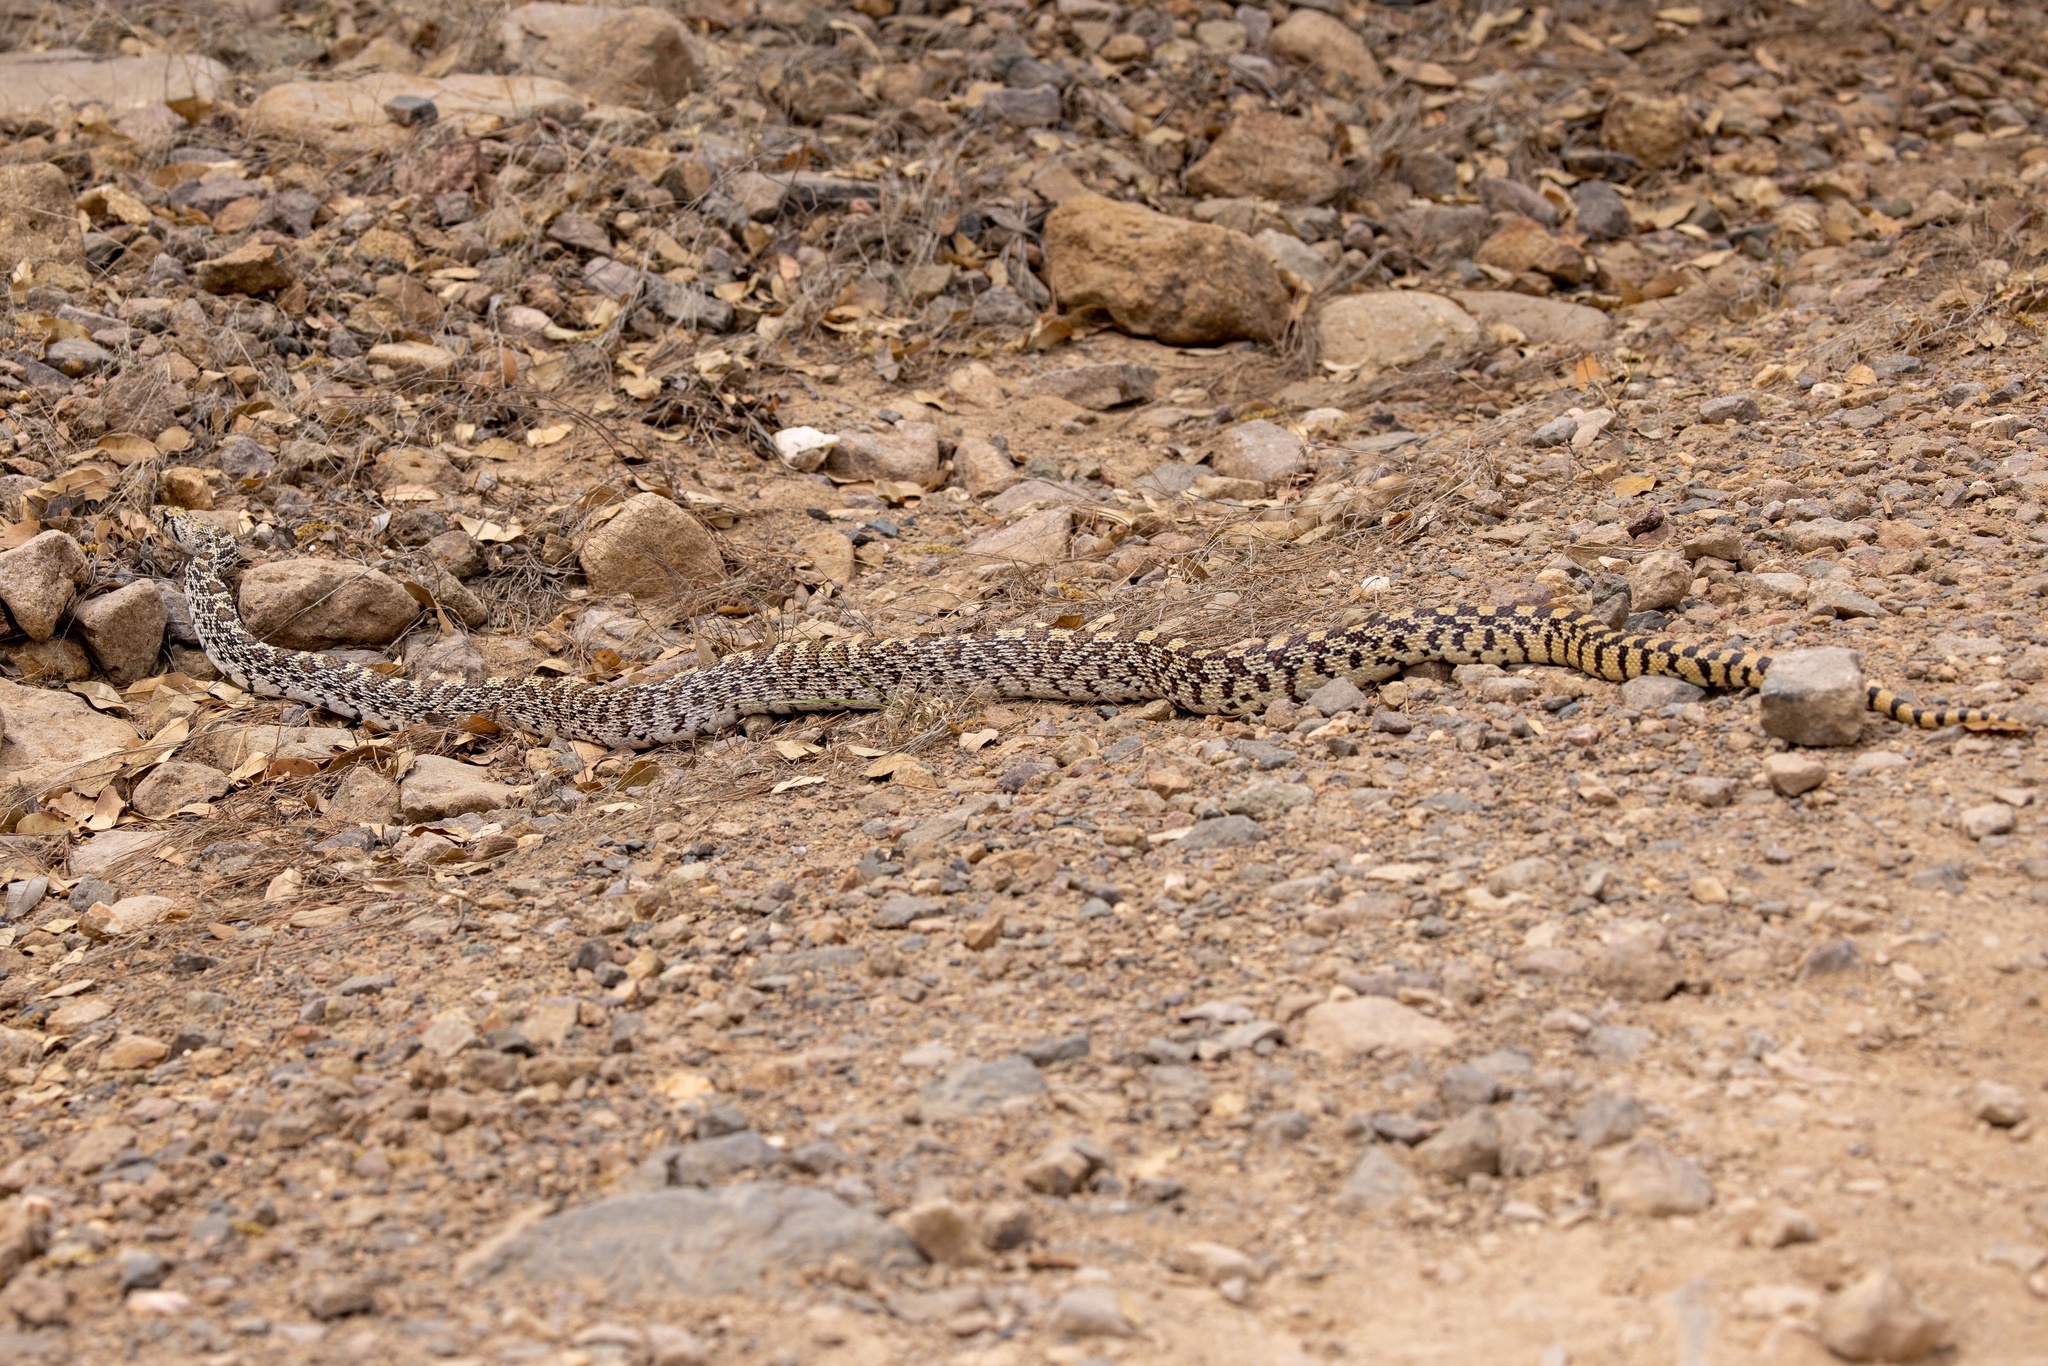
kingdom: Animalia
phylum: Chordata
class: Squamata
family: Colubridae
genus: Pituophis
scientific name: Pituophis catenifer
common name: Gopher snake
